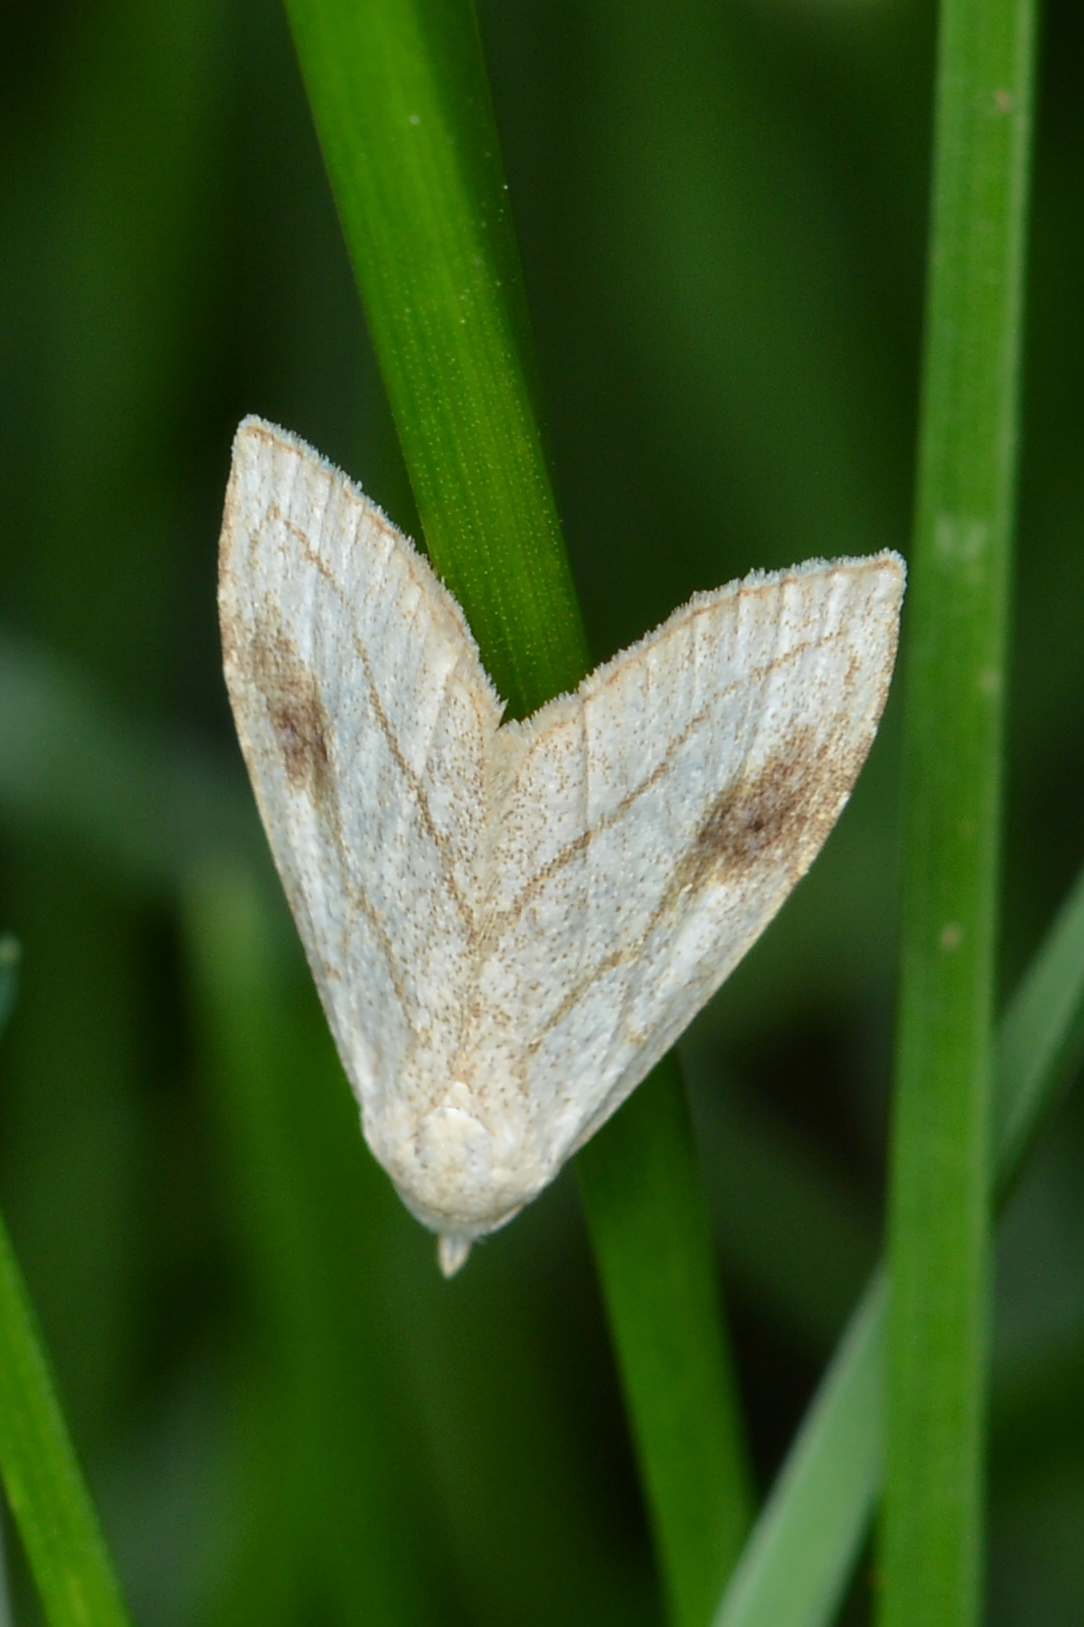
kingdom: Animalia
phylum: Arthropoda
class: Insecta
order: Lepidoptera
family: Erebidae
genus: Rivula
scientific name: Rivula propinqualis
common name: Spotted grass moth
